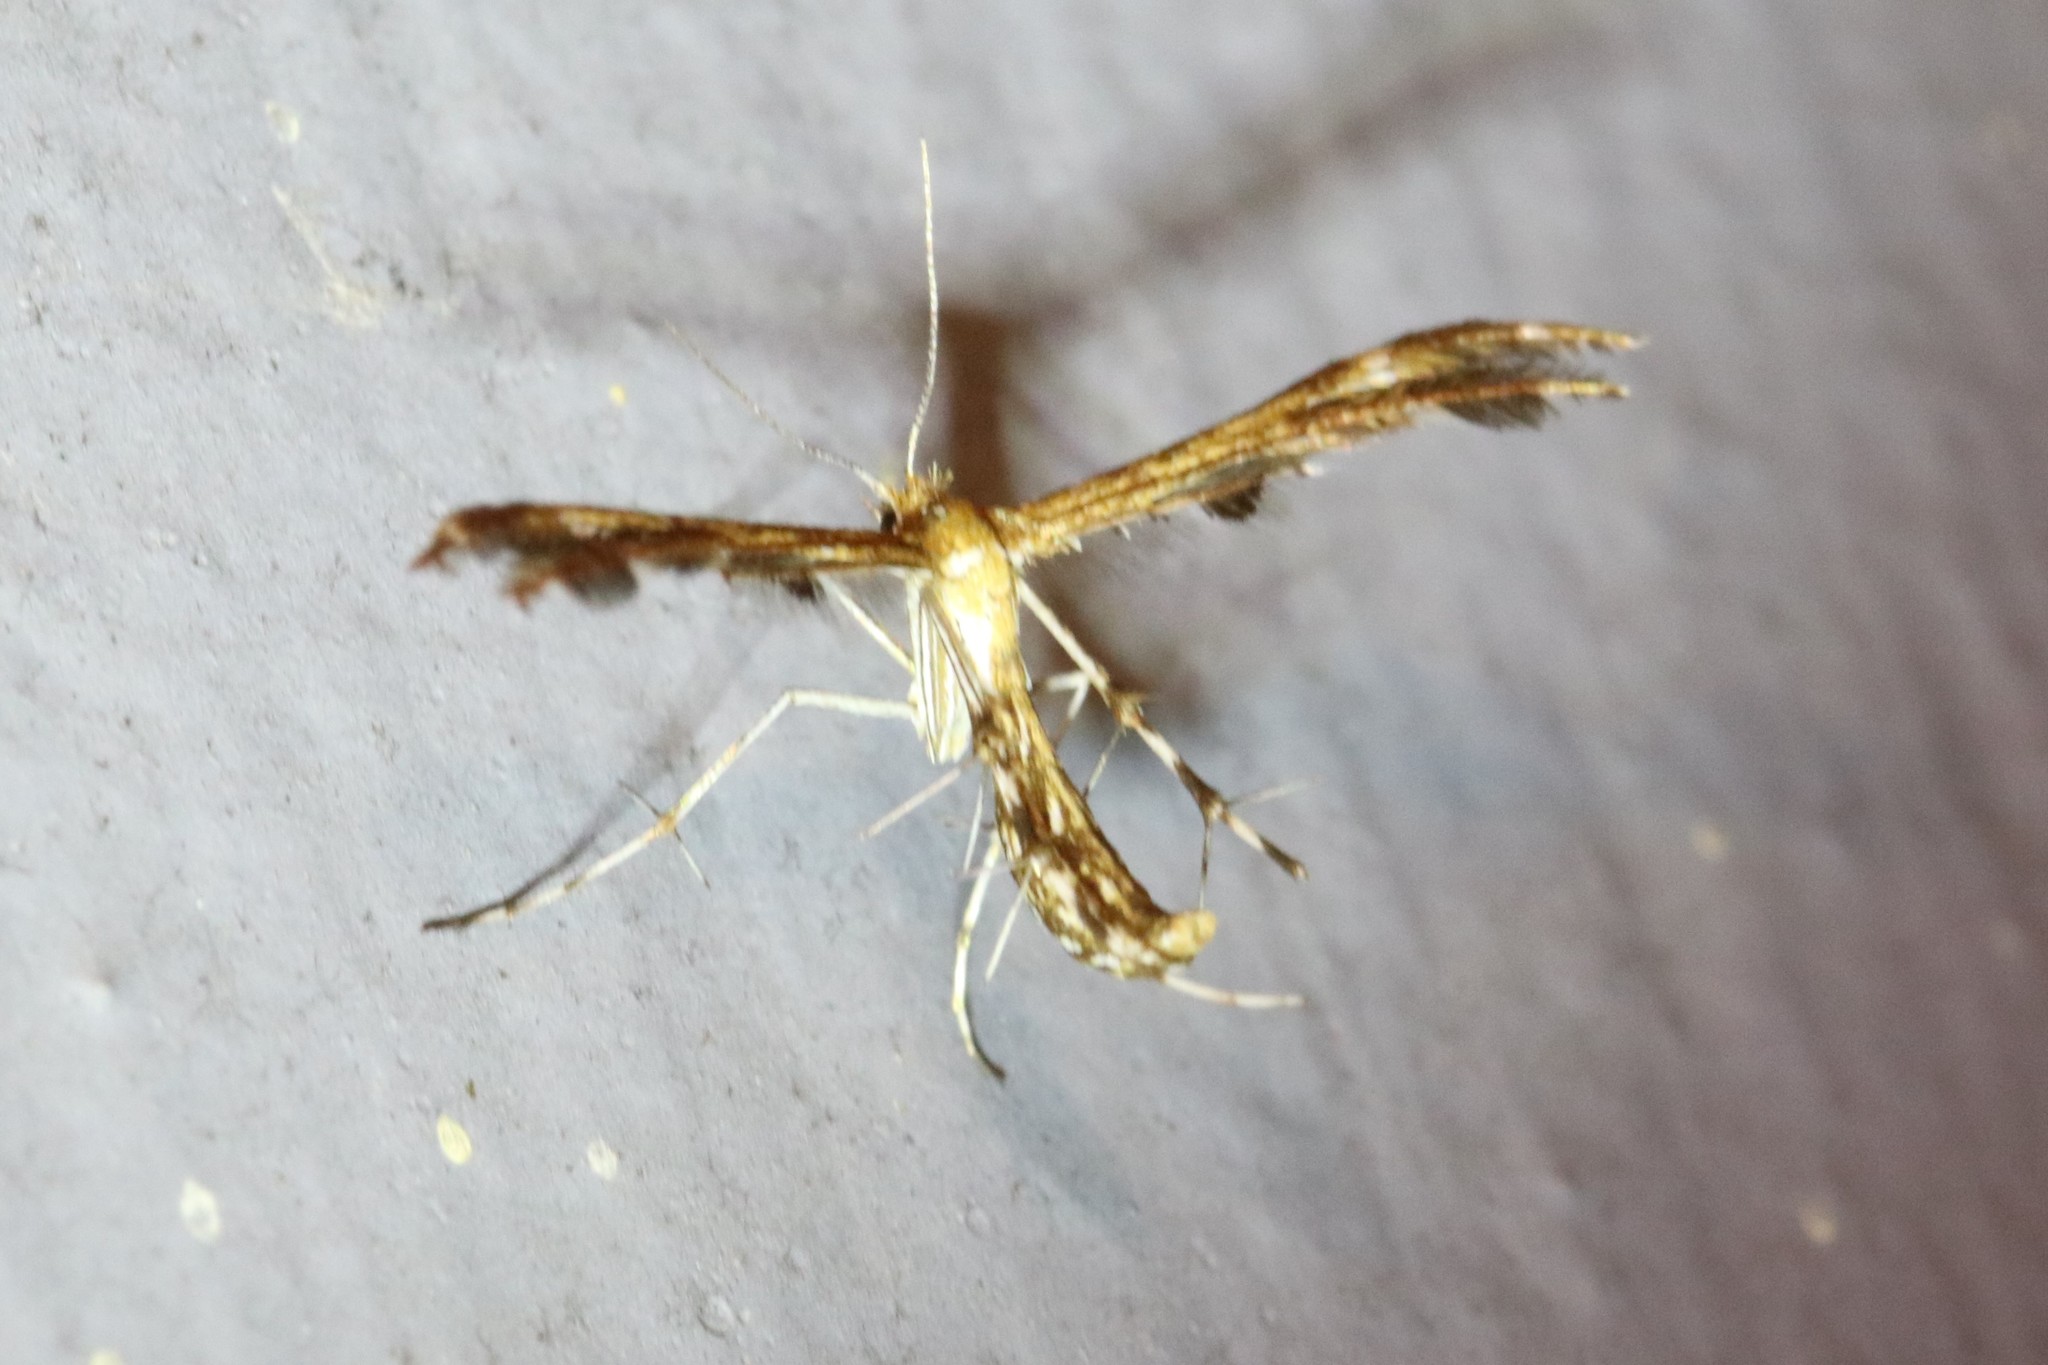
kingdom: Animalia
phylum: Arthropoda
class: Insecta
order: Lepidoptera
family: Pterophoridae
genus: Dejongia
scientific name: Dejongia lobidactylus
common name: Lobed plume moth
